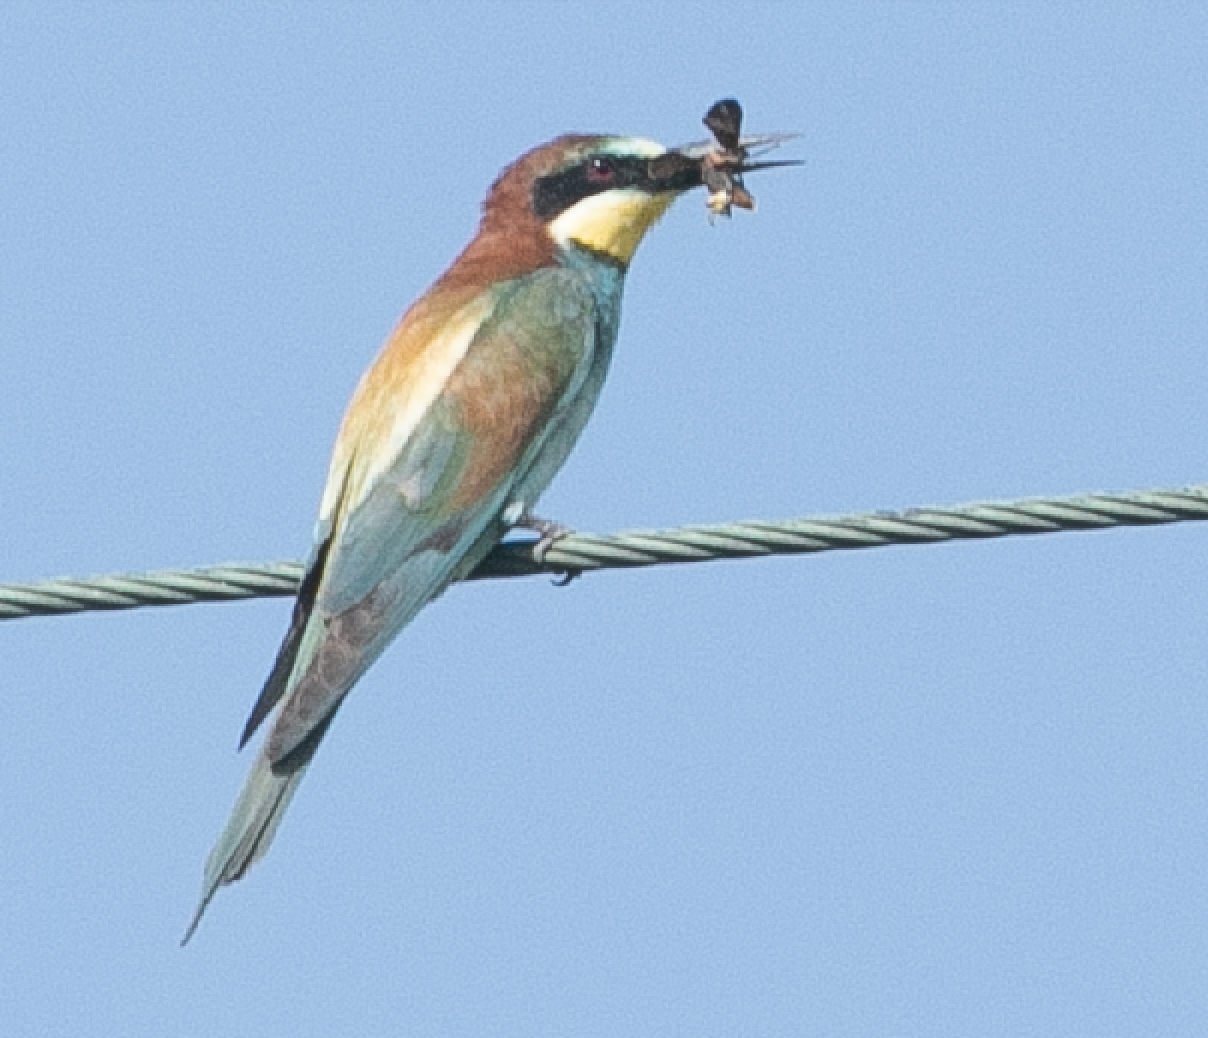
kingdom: Animalia
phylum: Chordata
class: Aves
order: Coraciiformes
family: Meropidae
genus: Merops
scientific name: Merops apiaster
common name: European bee-eater
